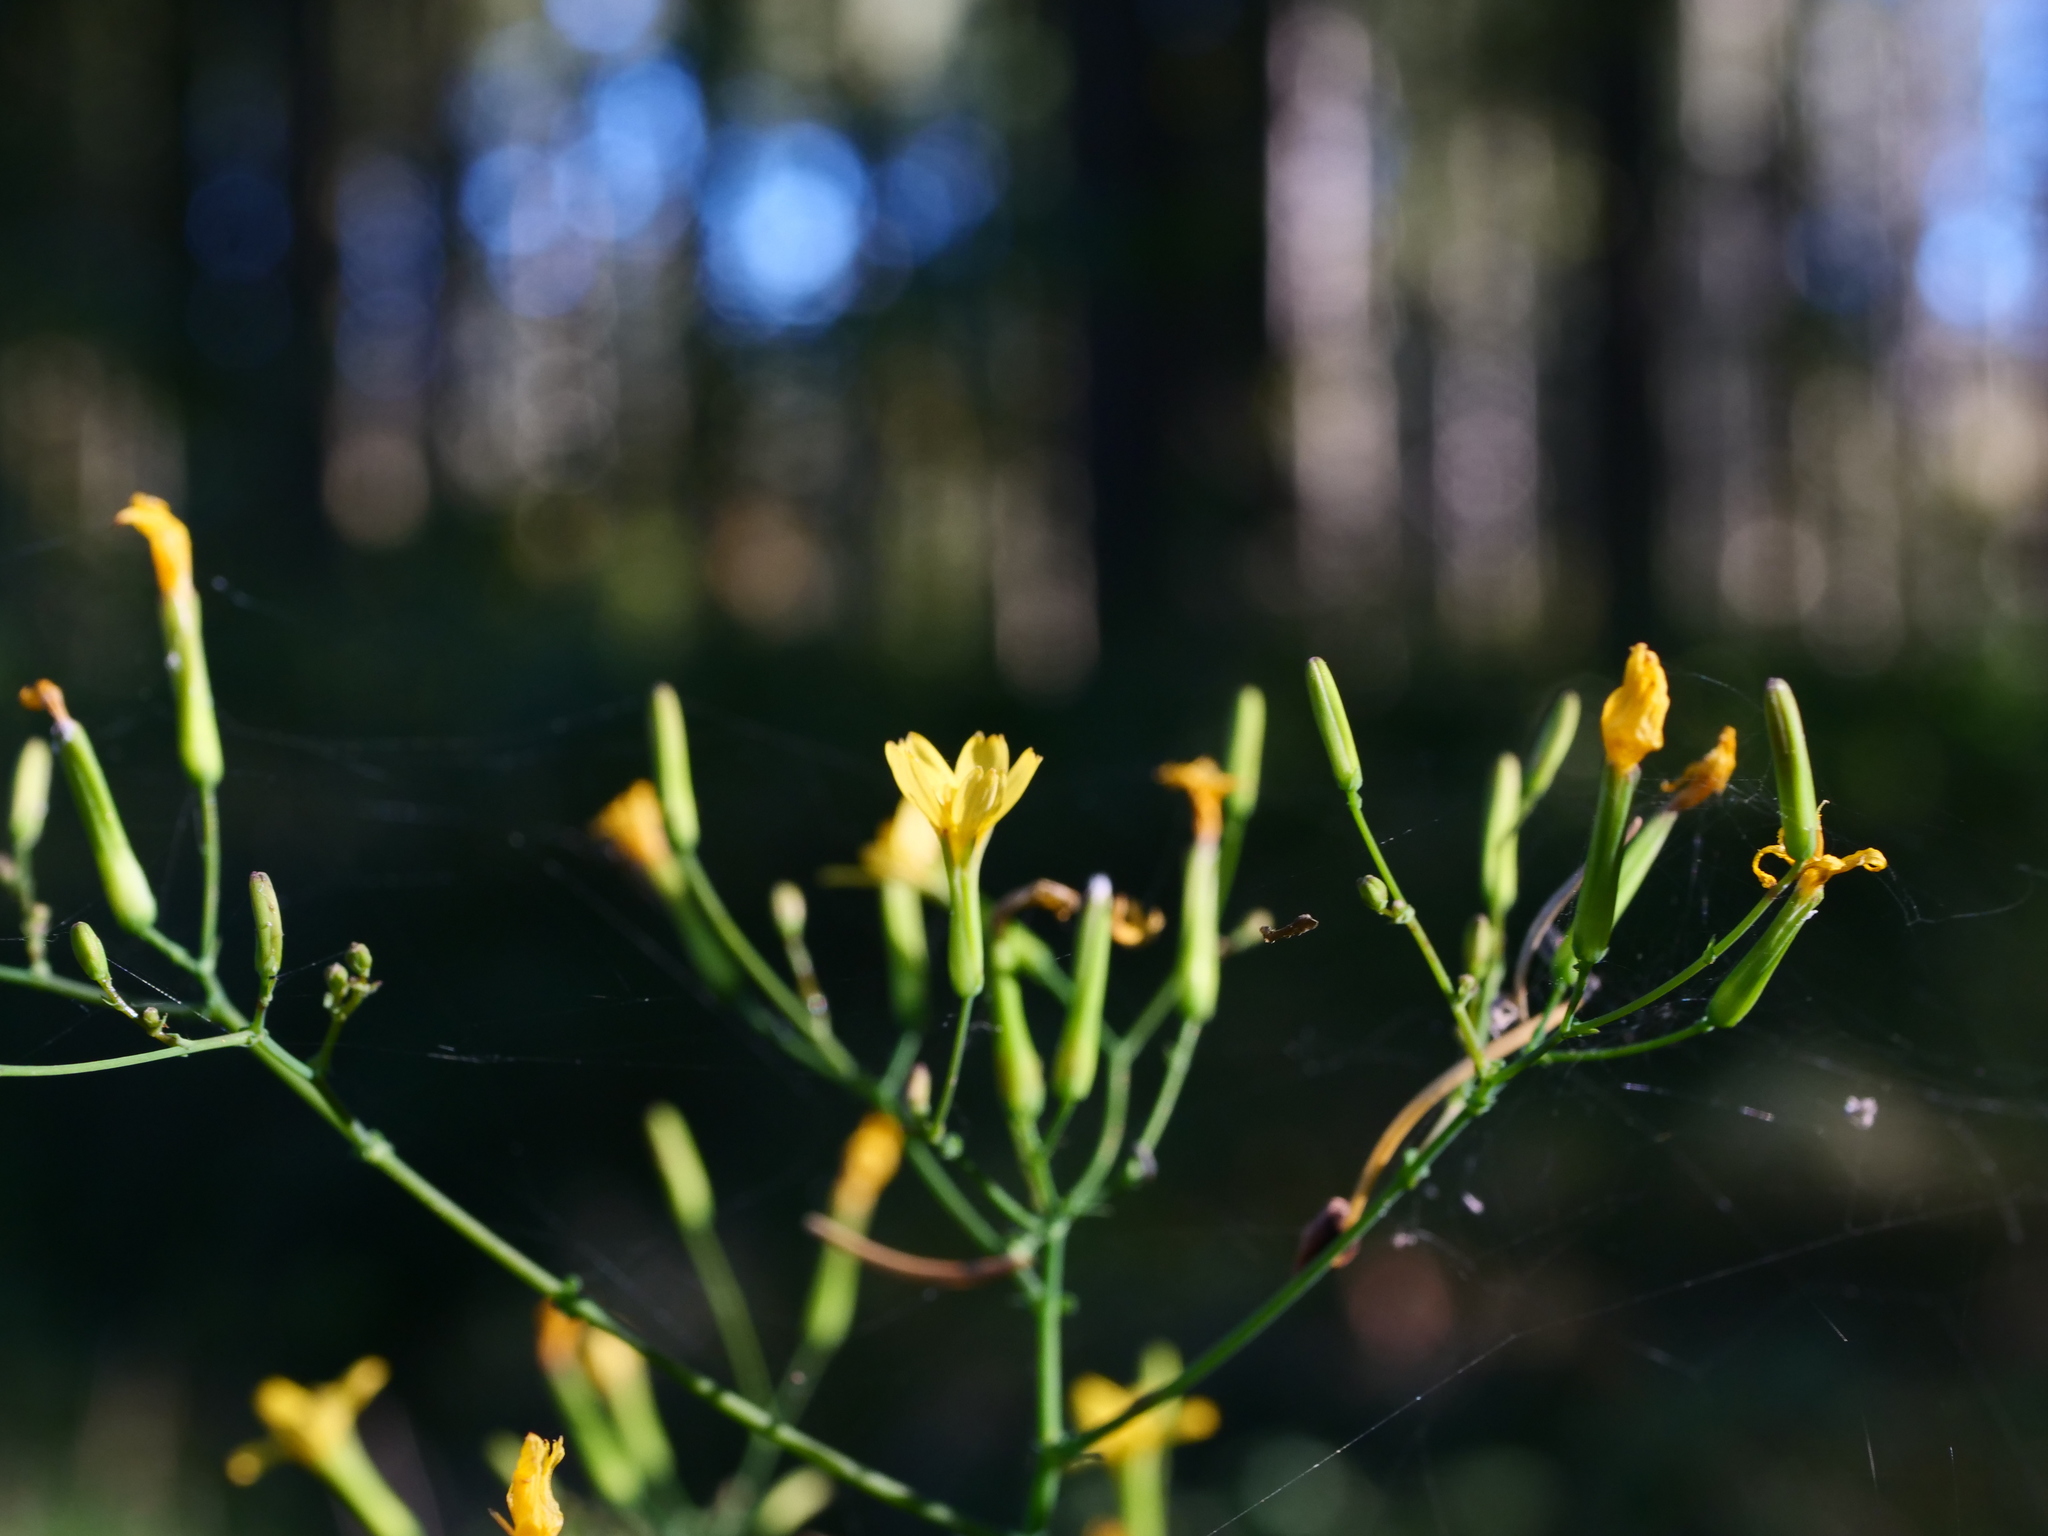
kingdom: Plantae
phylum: Tracheophyta
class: Magnoliopsida
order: Asterales
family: Asteraceae
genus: Mycelis
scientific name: Mycelis muralis
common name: Wall lettuce
